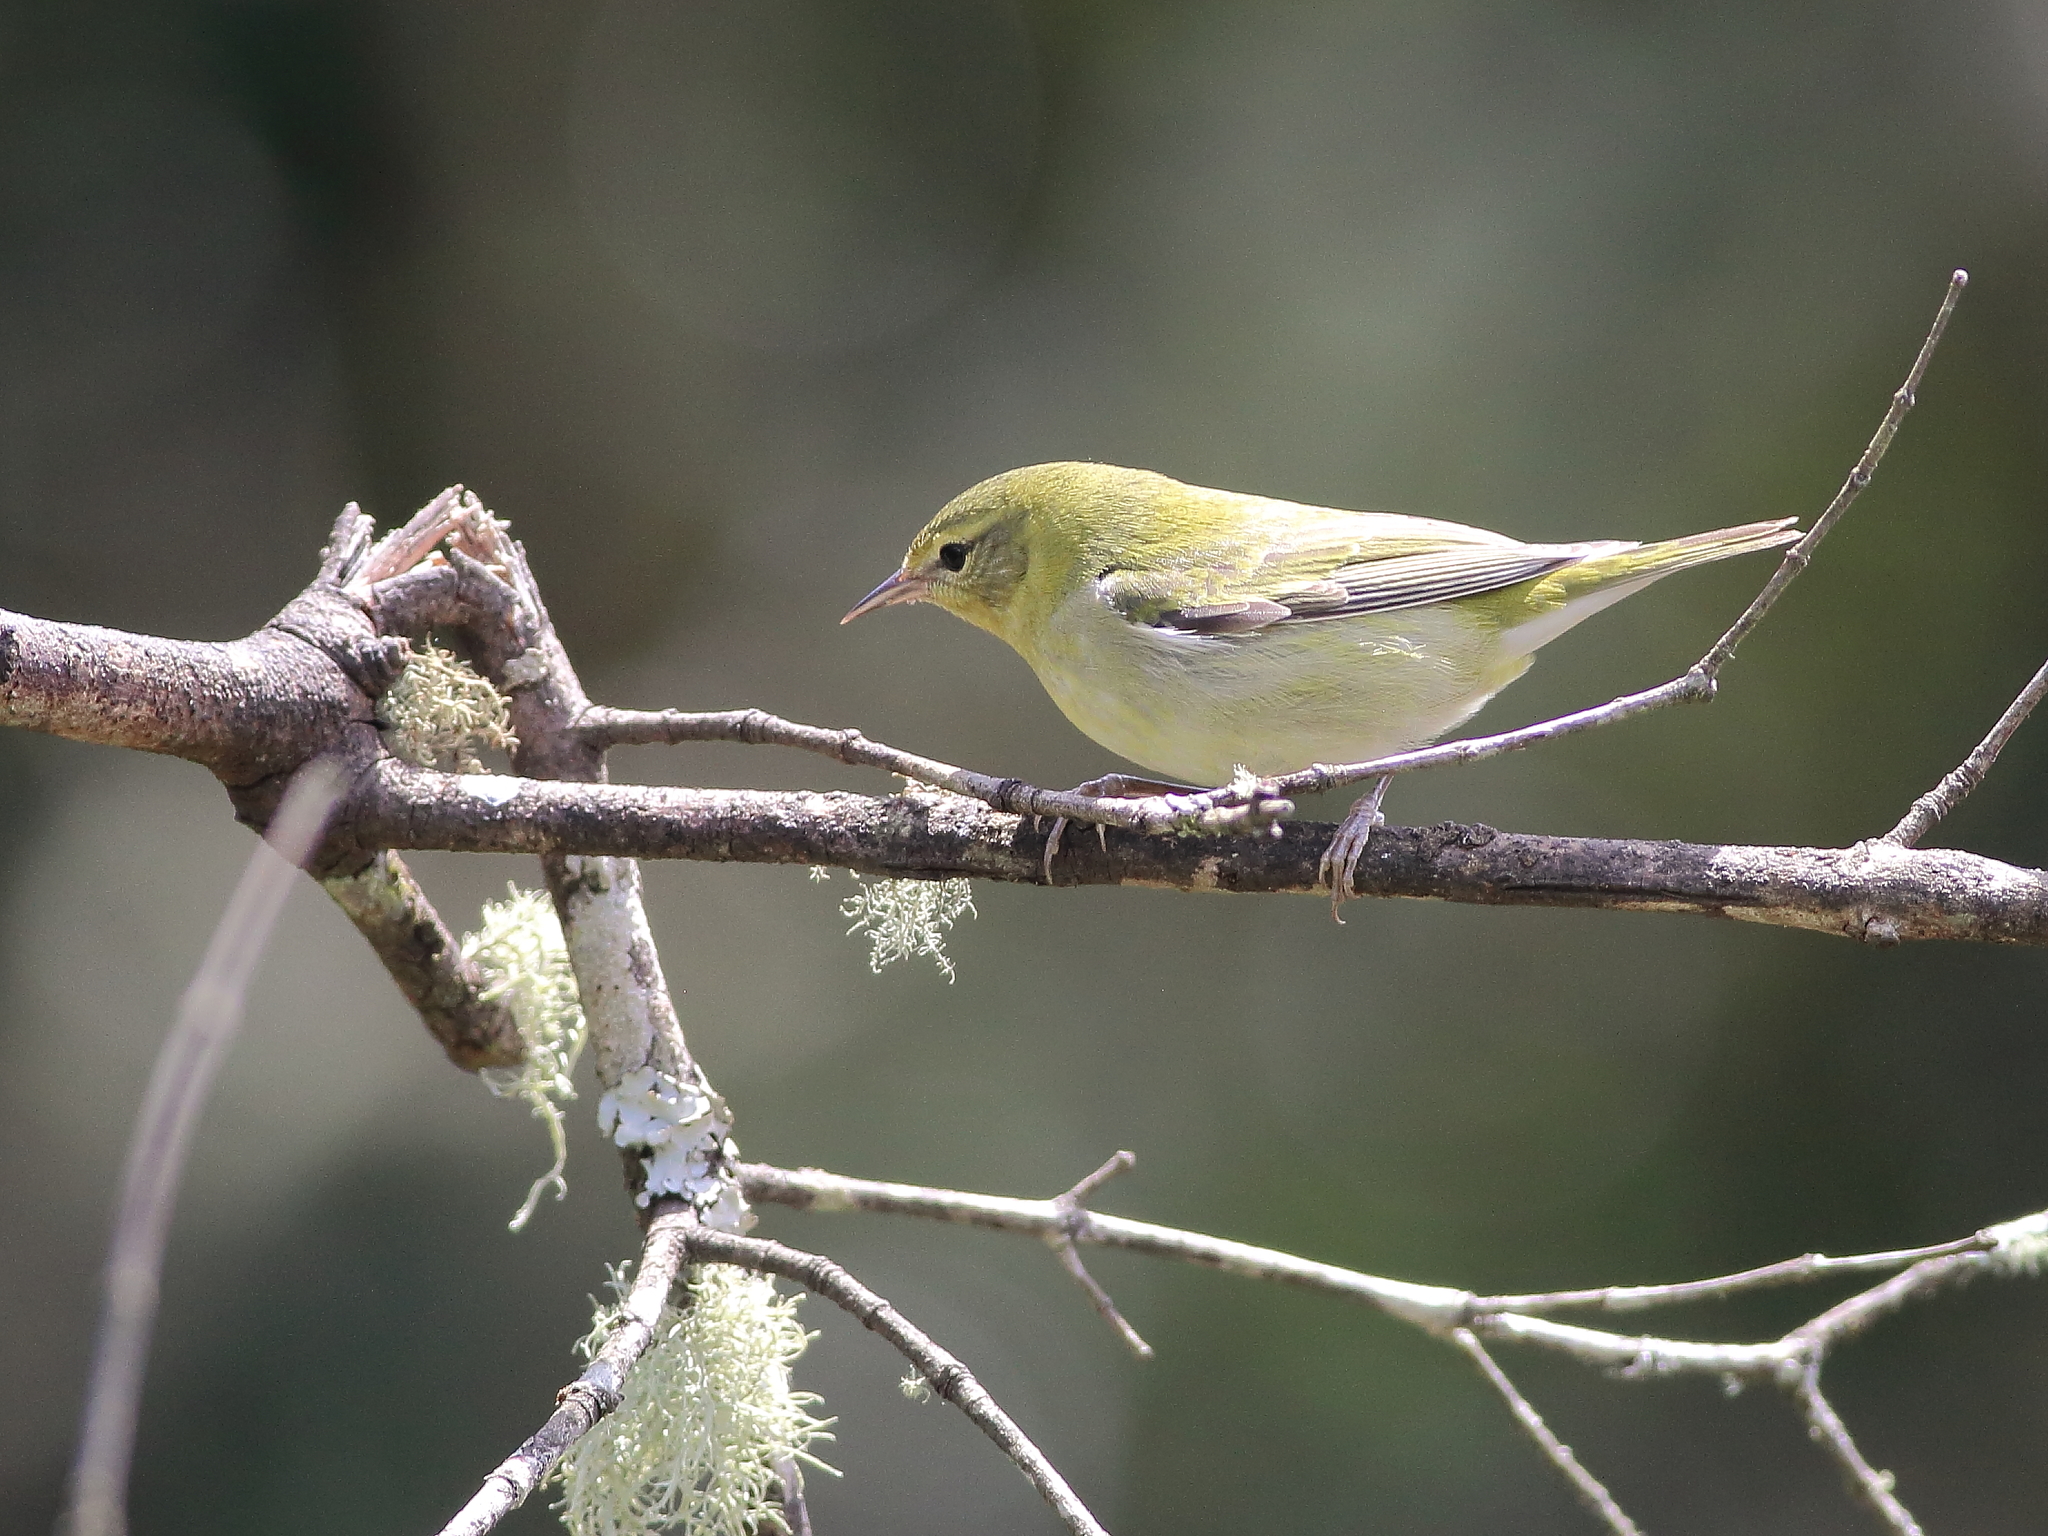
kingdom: Animalia
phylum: Chordata
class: Aves
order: Passeriformes
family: Parulidae
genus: Leiothlypis
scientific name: Leiothlypis peregrina
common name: Tennessee warbler
